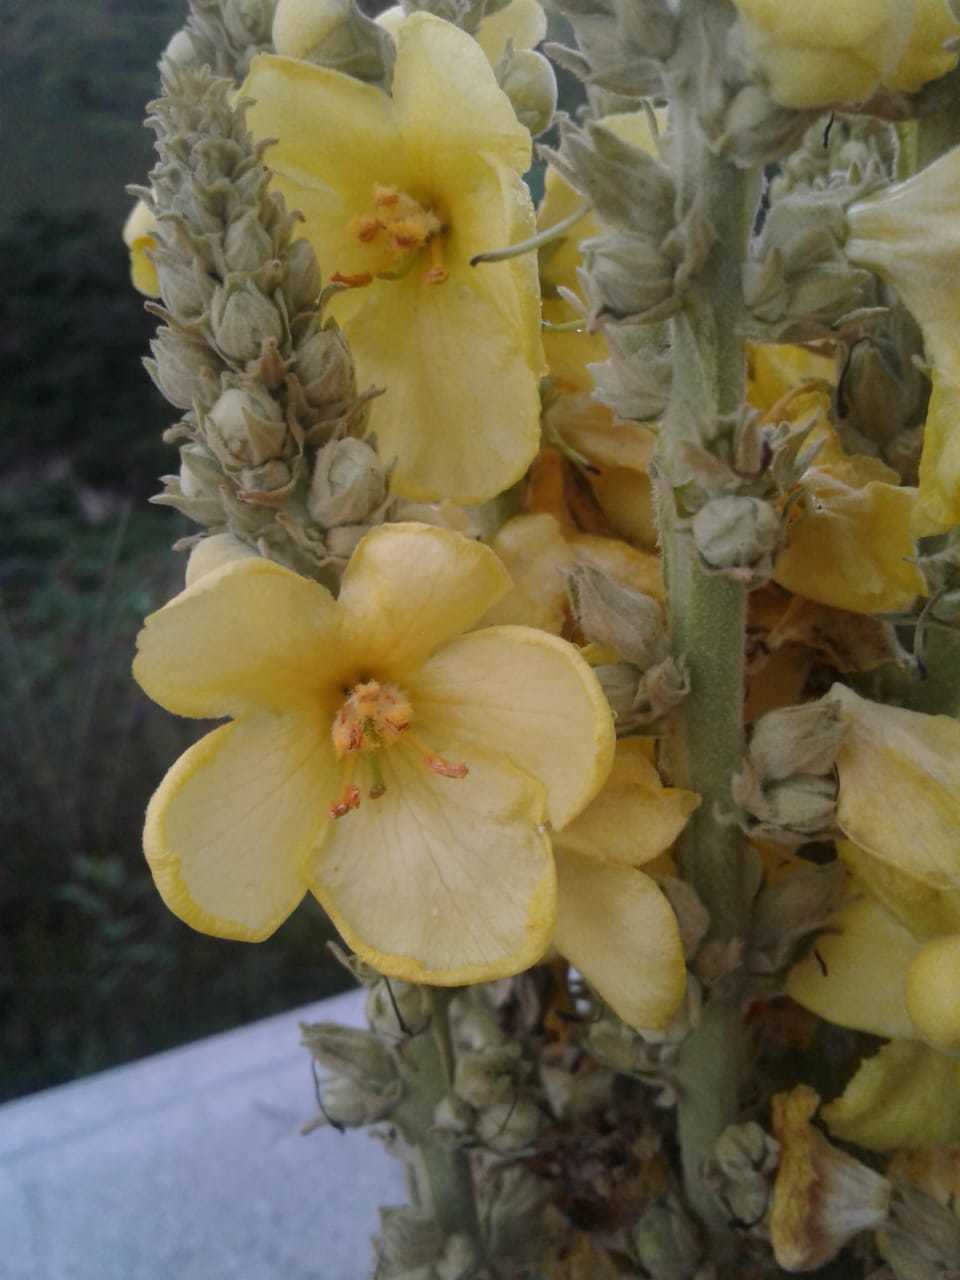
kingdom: Plantae
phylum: Tracheophyta
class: Magnoliopsida
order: Lamiales
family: Scrophulariaceae
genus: Verbascum
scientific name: Verbascum phlomoides
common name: Orange mullein
